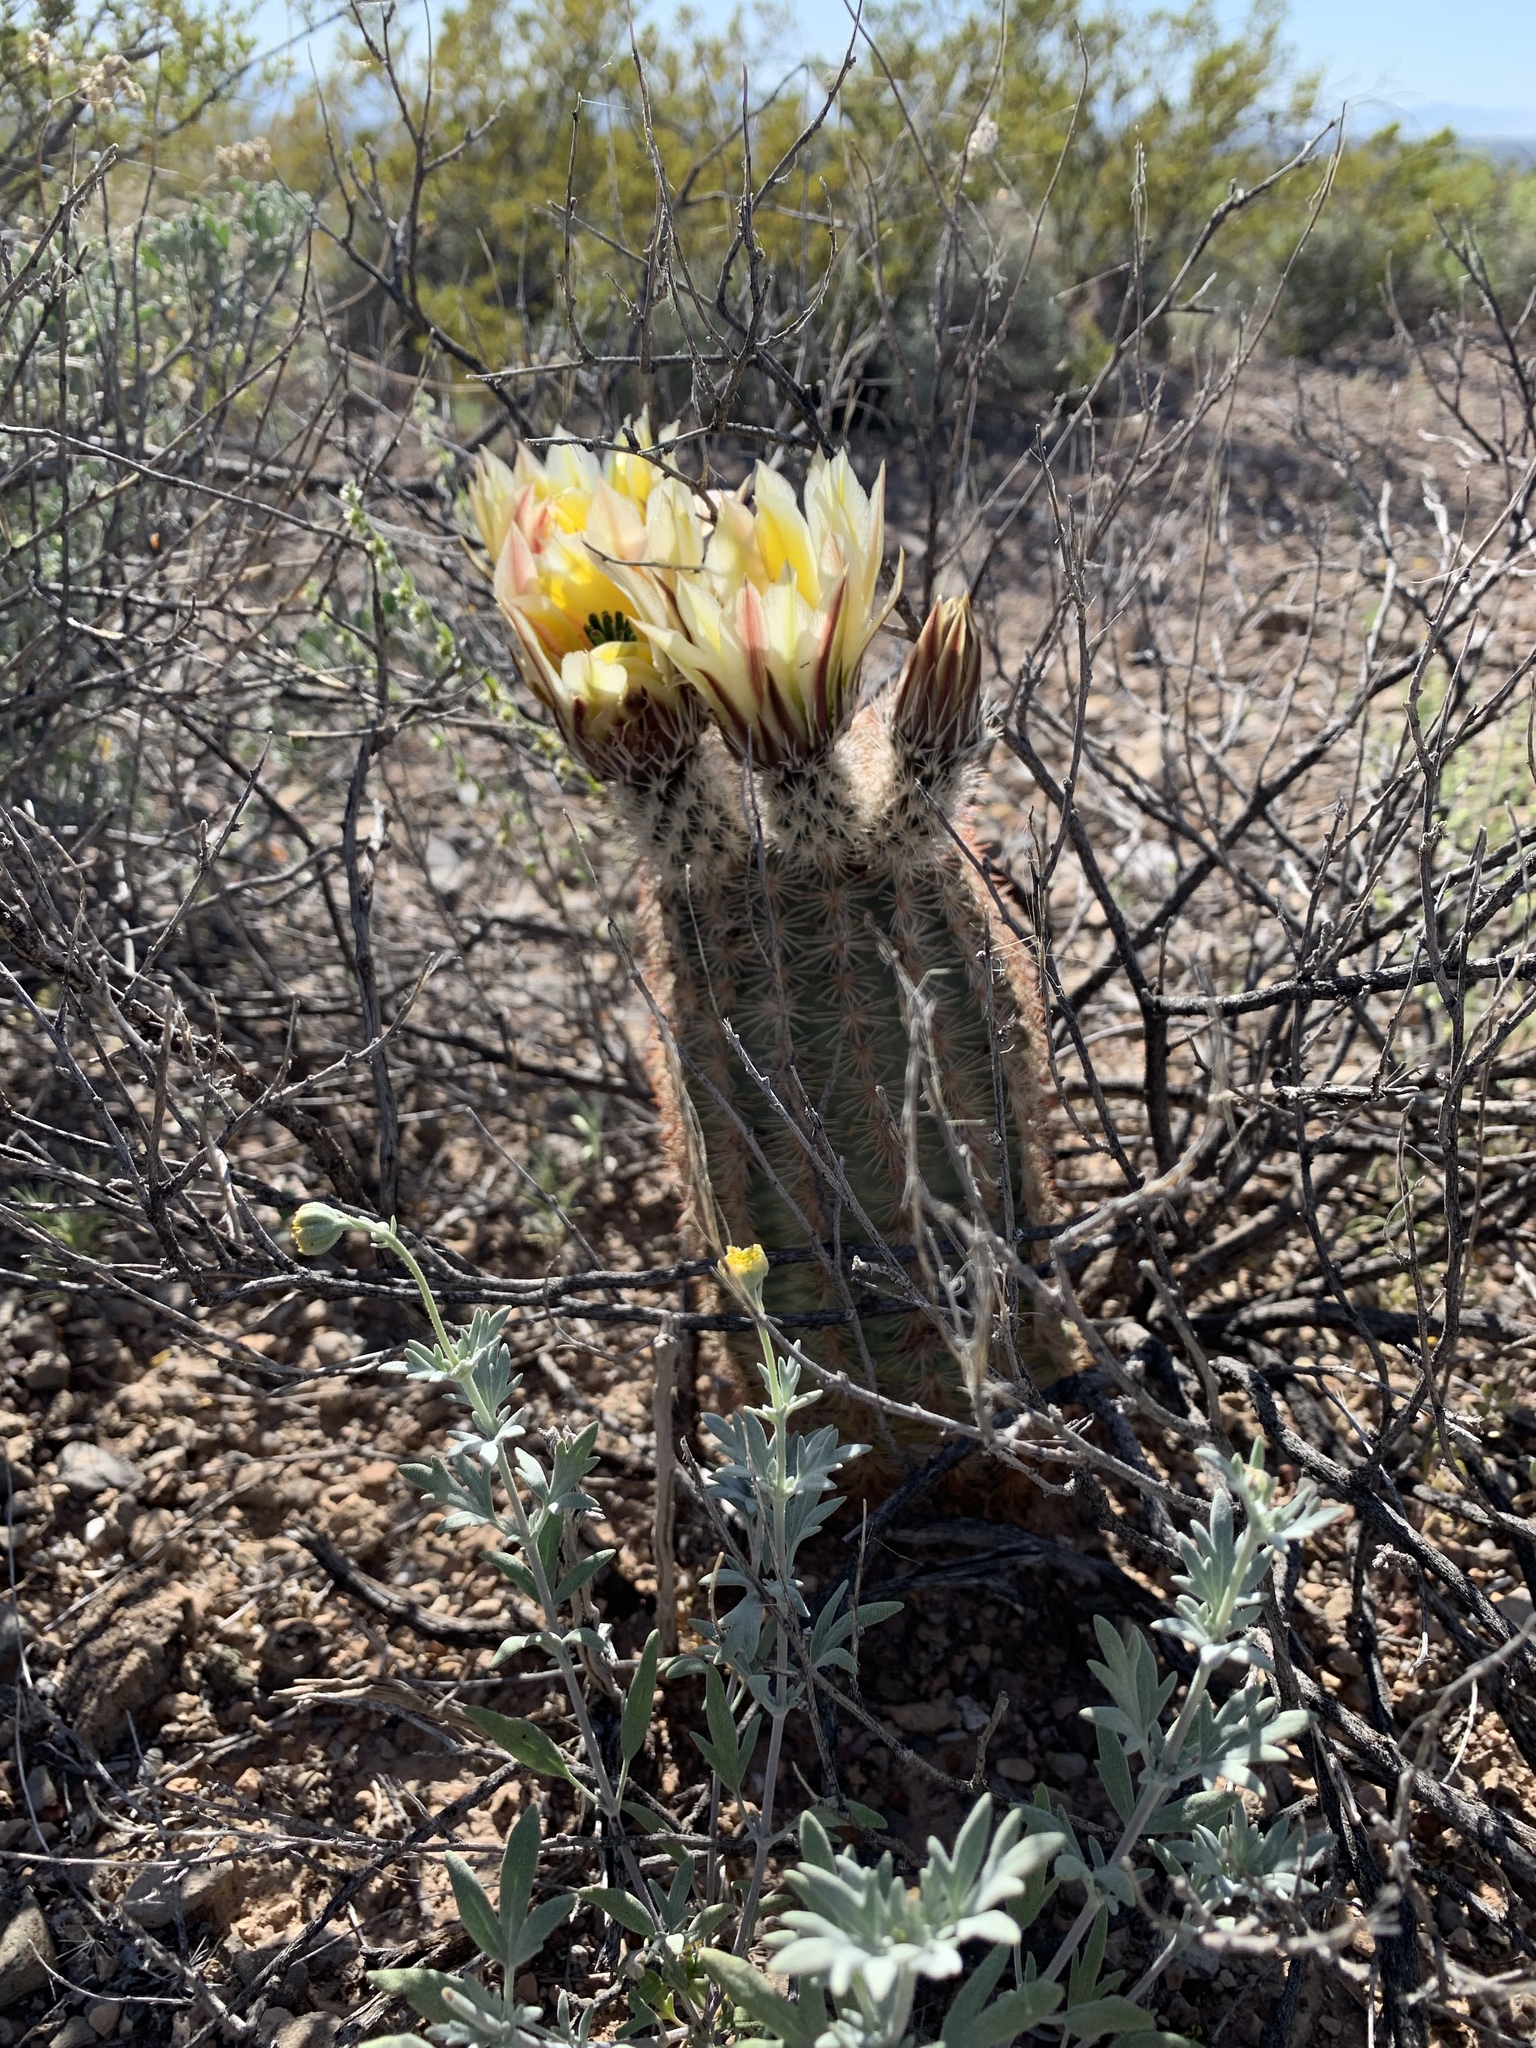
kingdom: Plantae
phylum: Tracheophyta
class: Magnoliopsida
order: Caryophyllales
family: Cactaceae
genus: Echinocereus
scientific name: Echinocereus dasyacanthus
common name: Spiny hedgehog cactus
